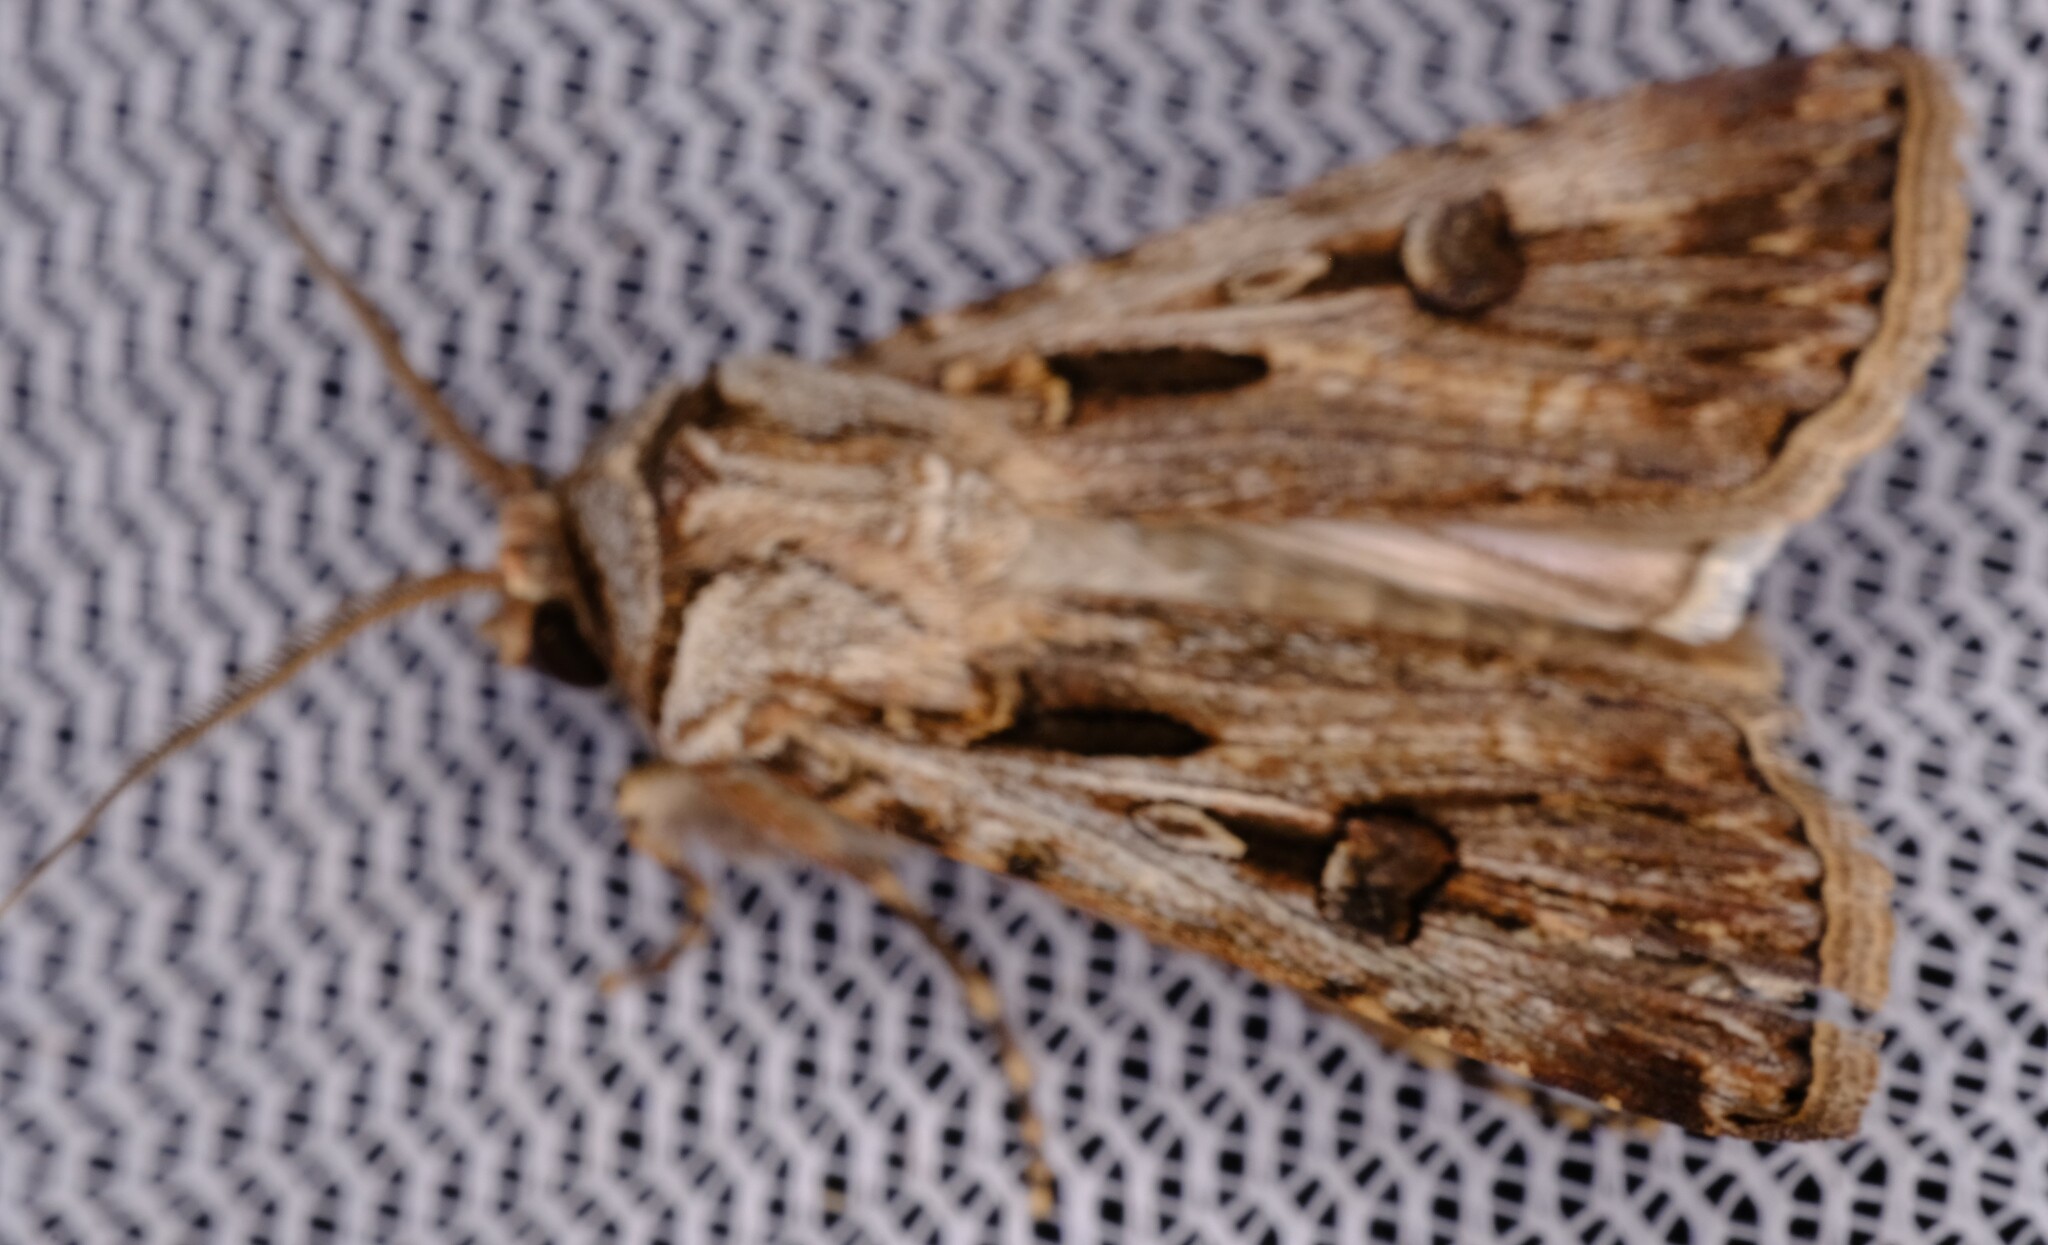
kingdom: Animalia
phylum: Arthropoda
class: Insecta
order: Lepidoptera
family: Noctuidae
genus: Agrotis
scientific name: Agrotis munda
